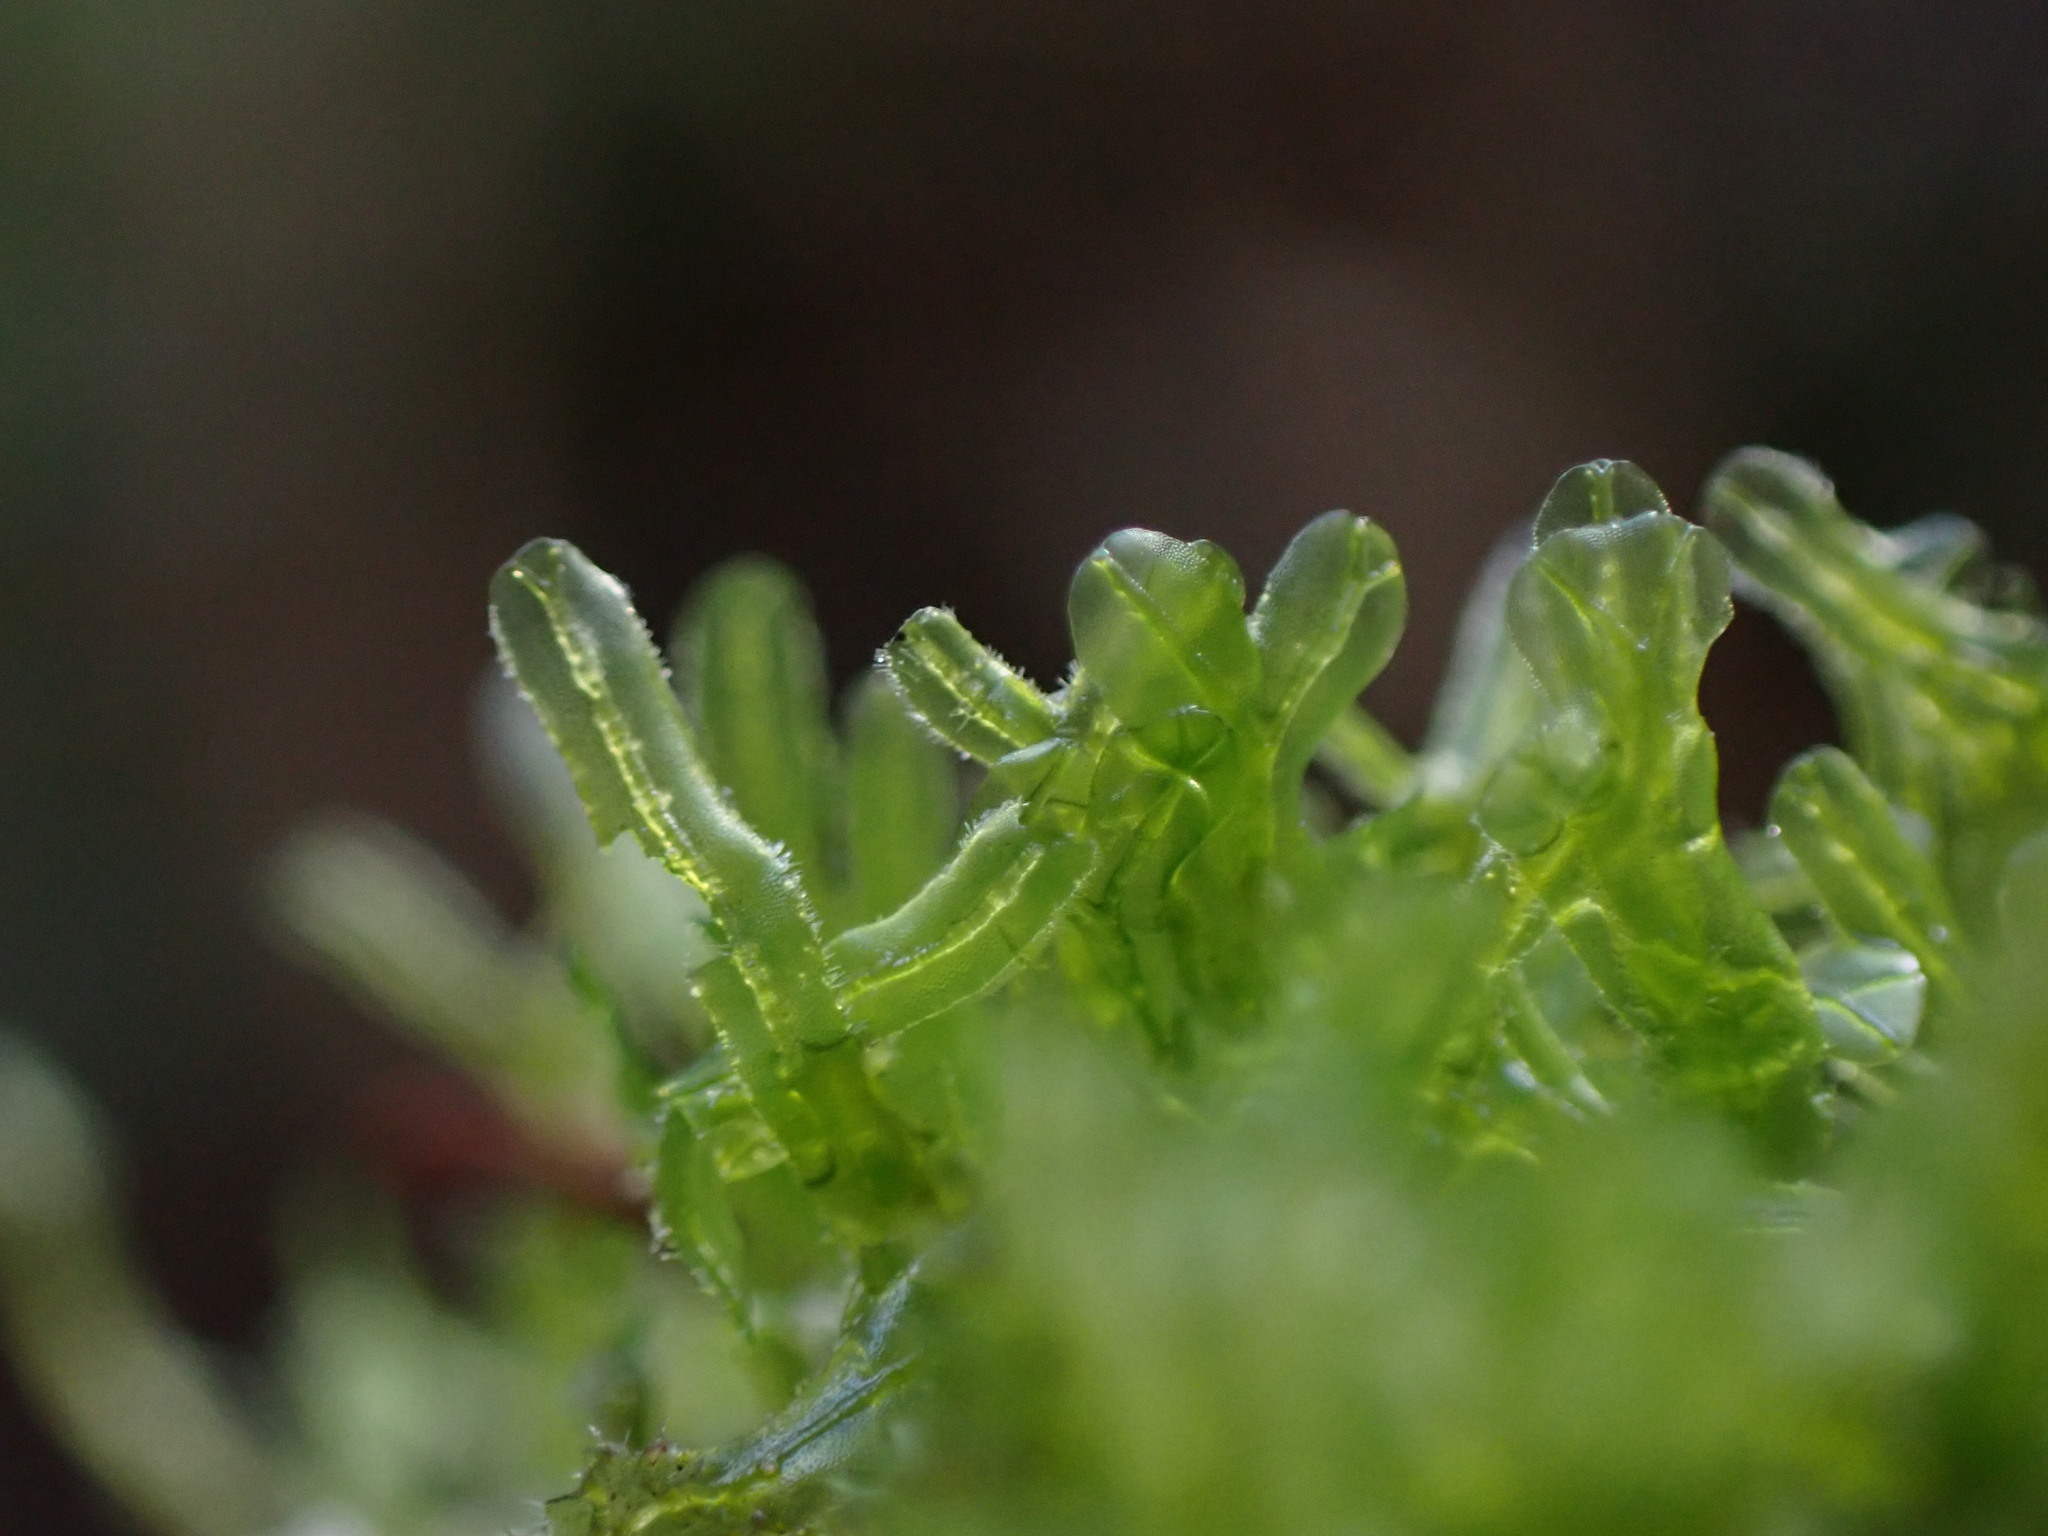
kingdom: Plantae
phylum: Marchantiophyta
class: Jungermanniopsida
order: Metzgeriales
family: Metzgeriaceae
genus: Metzgeria
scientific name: Metzgeria conjugata
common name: Rock veilwort
